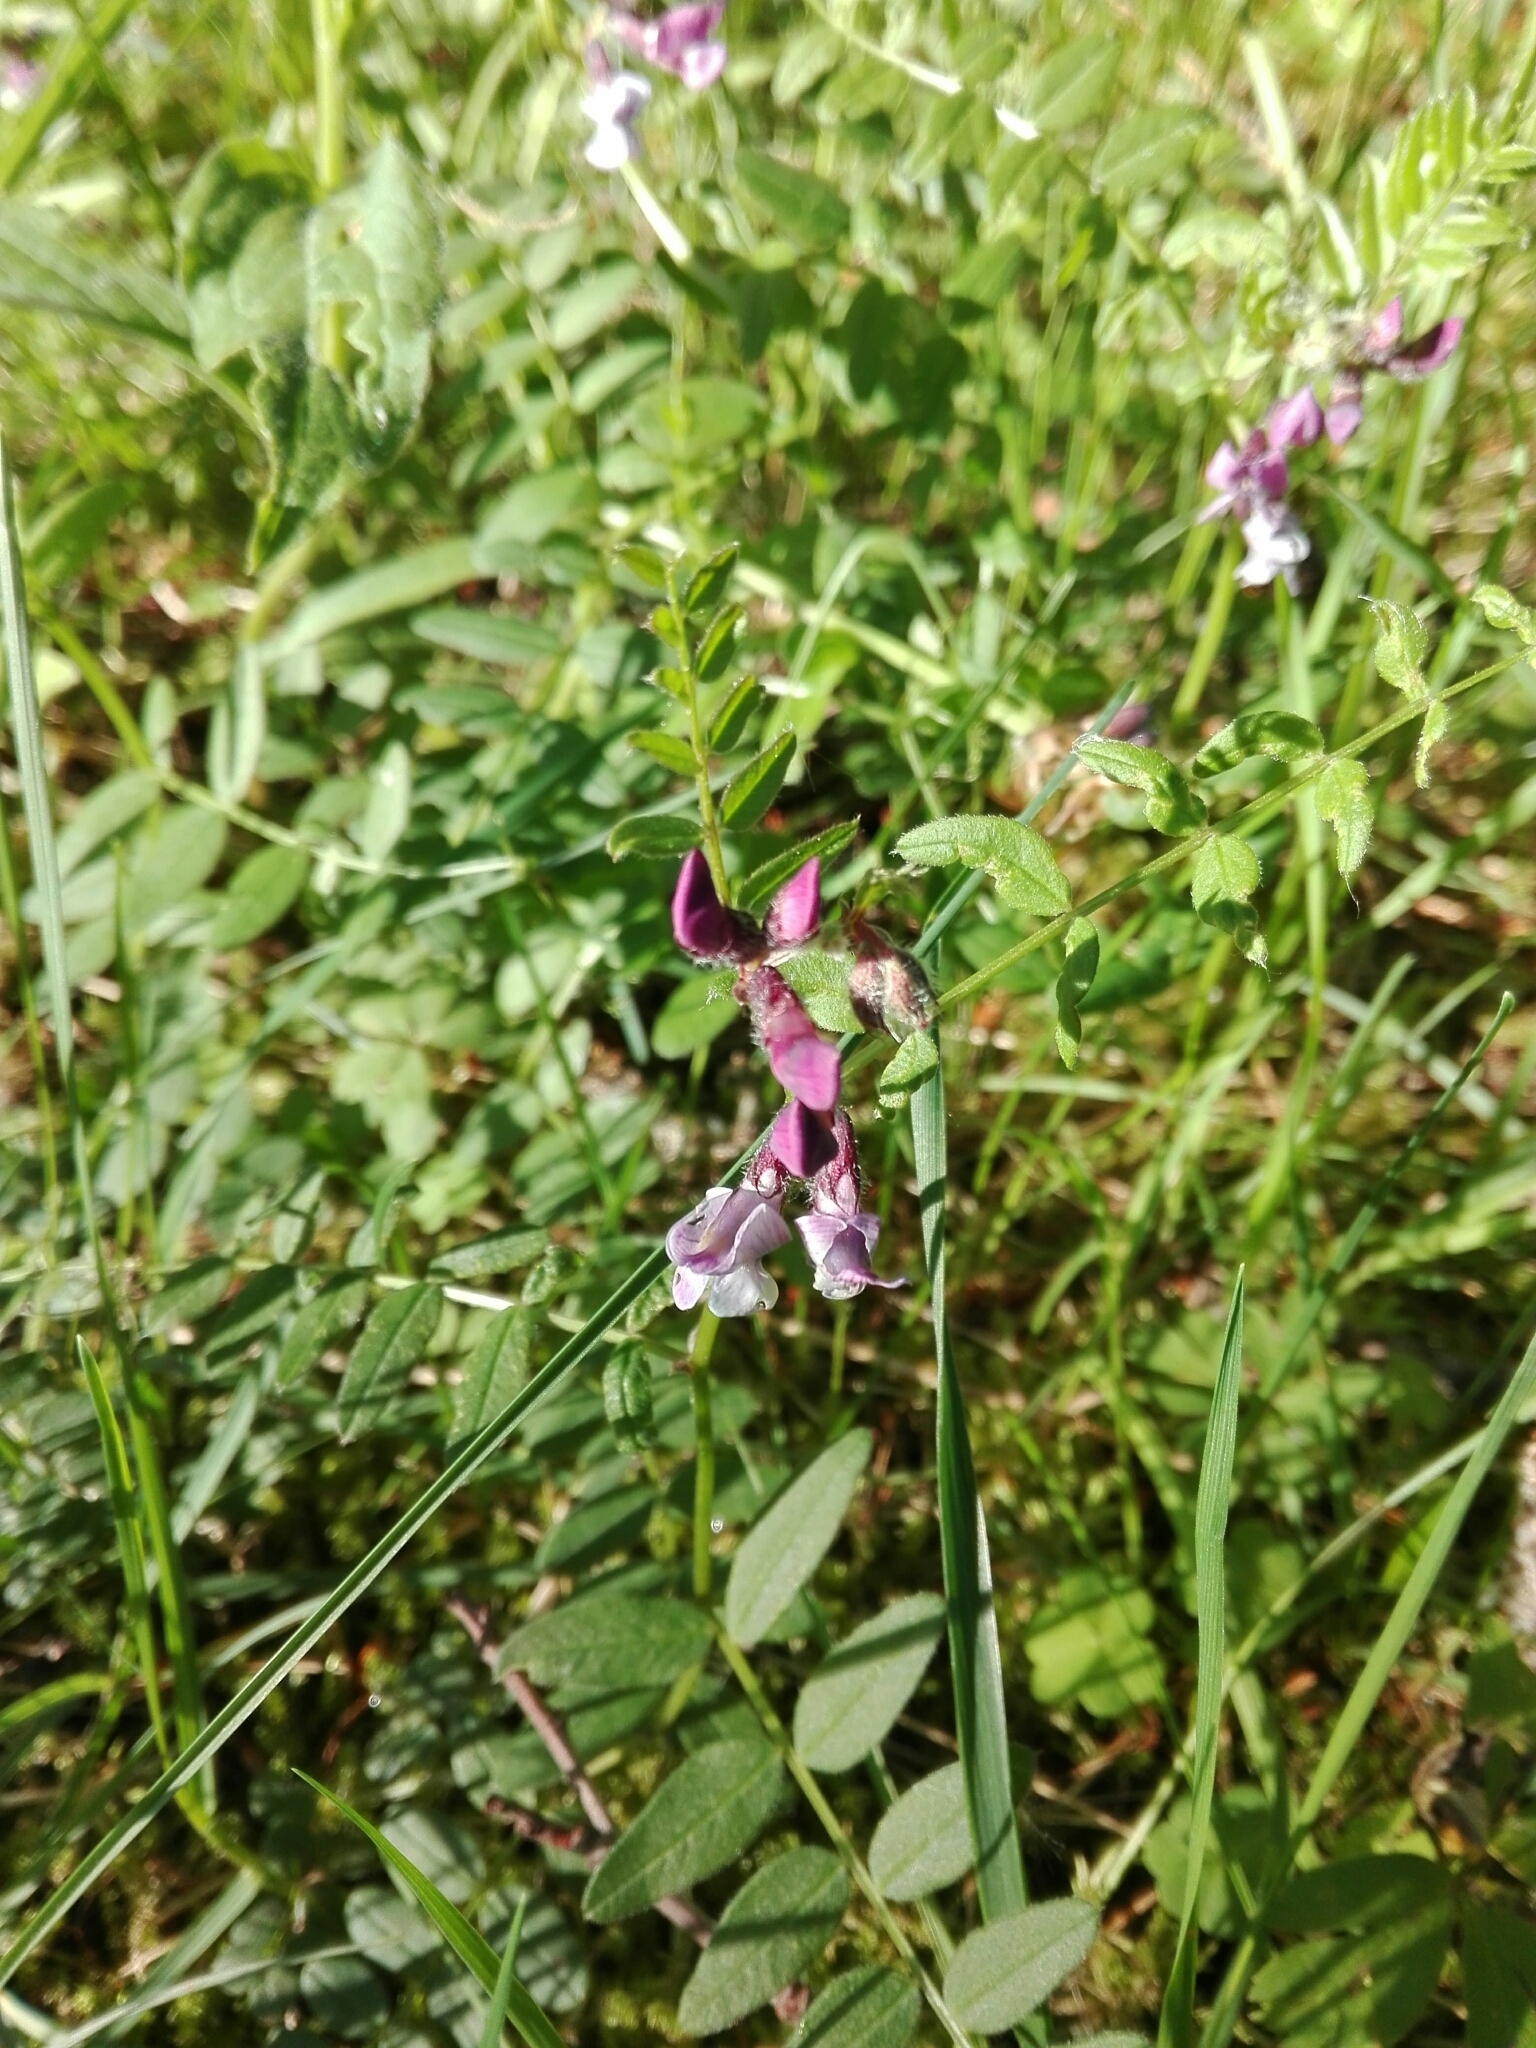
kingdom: Plantae
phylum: Tracheophyta
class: Magnoliopsida
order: Fabales
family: Fabaceae
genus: Vicia
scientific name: Vicia sepium
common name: Bush vetch
